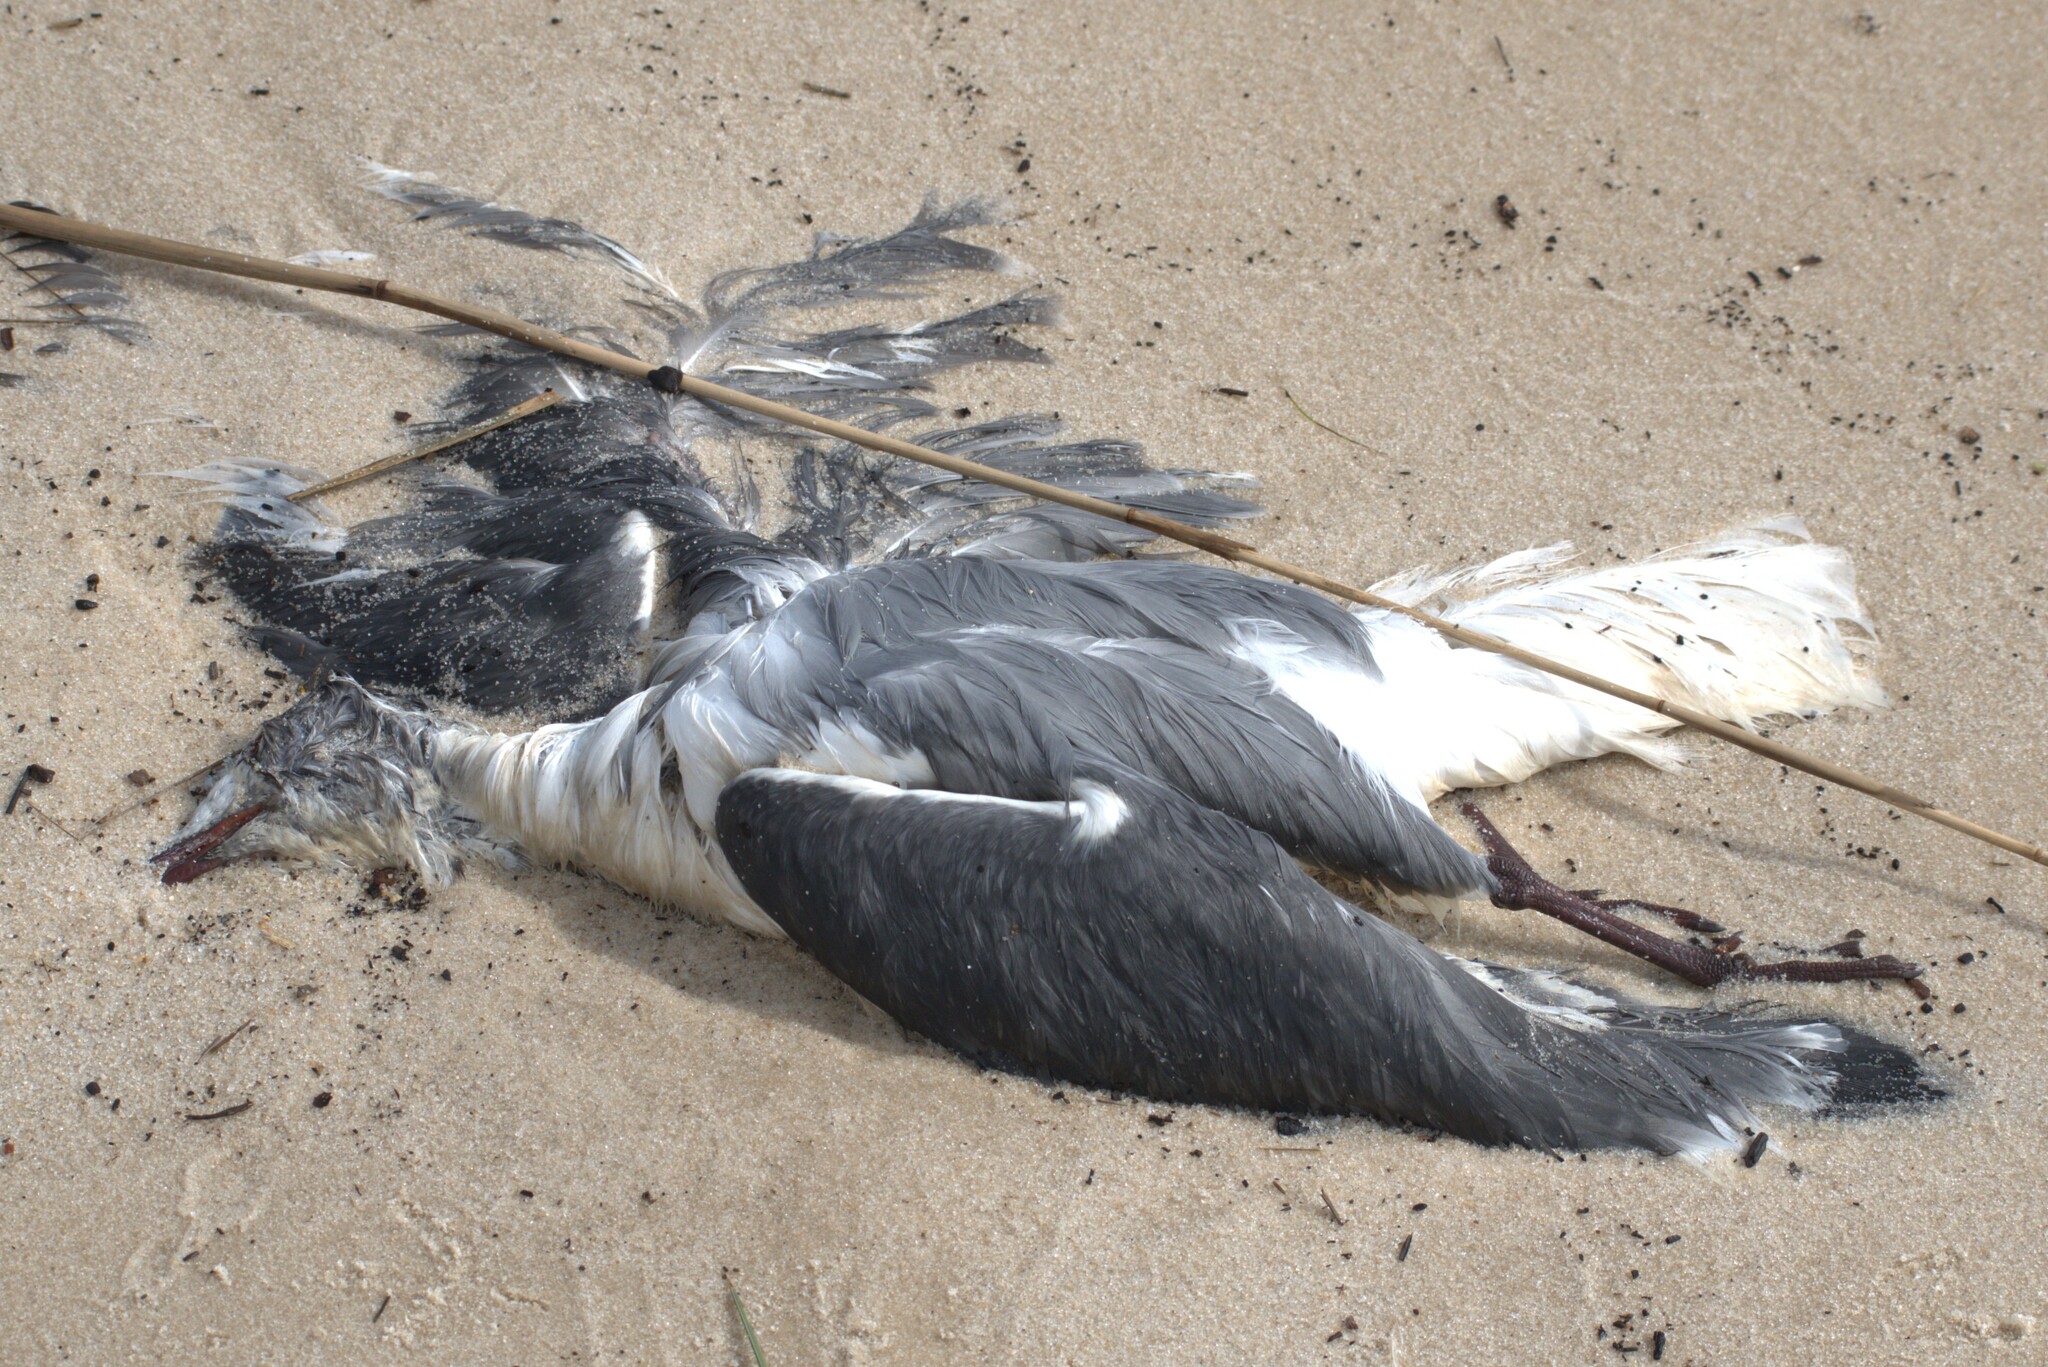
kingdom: Animalia
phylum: Chordata
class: Aves
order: Charadriiformes
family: Laridae
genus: Leucophaeus
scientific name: Leucophaeus atricilla
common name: Laughing gull
